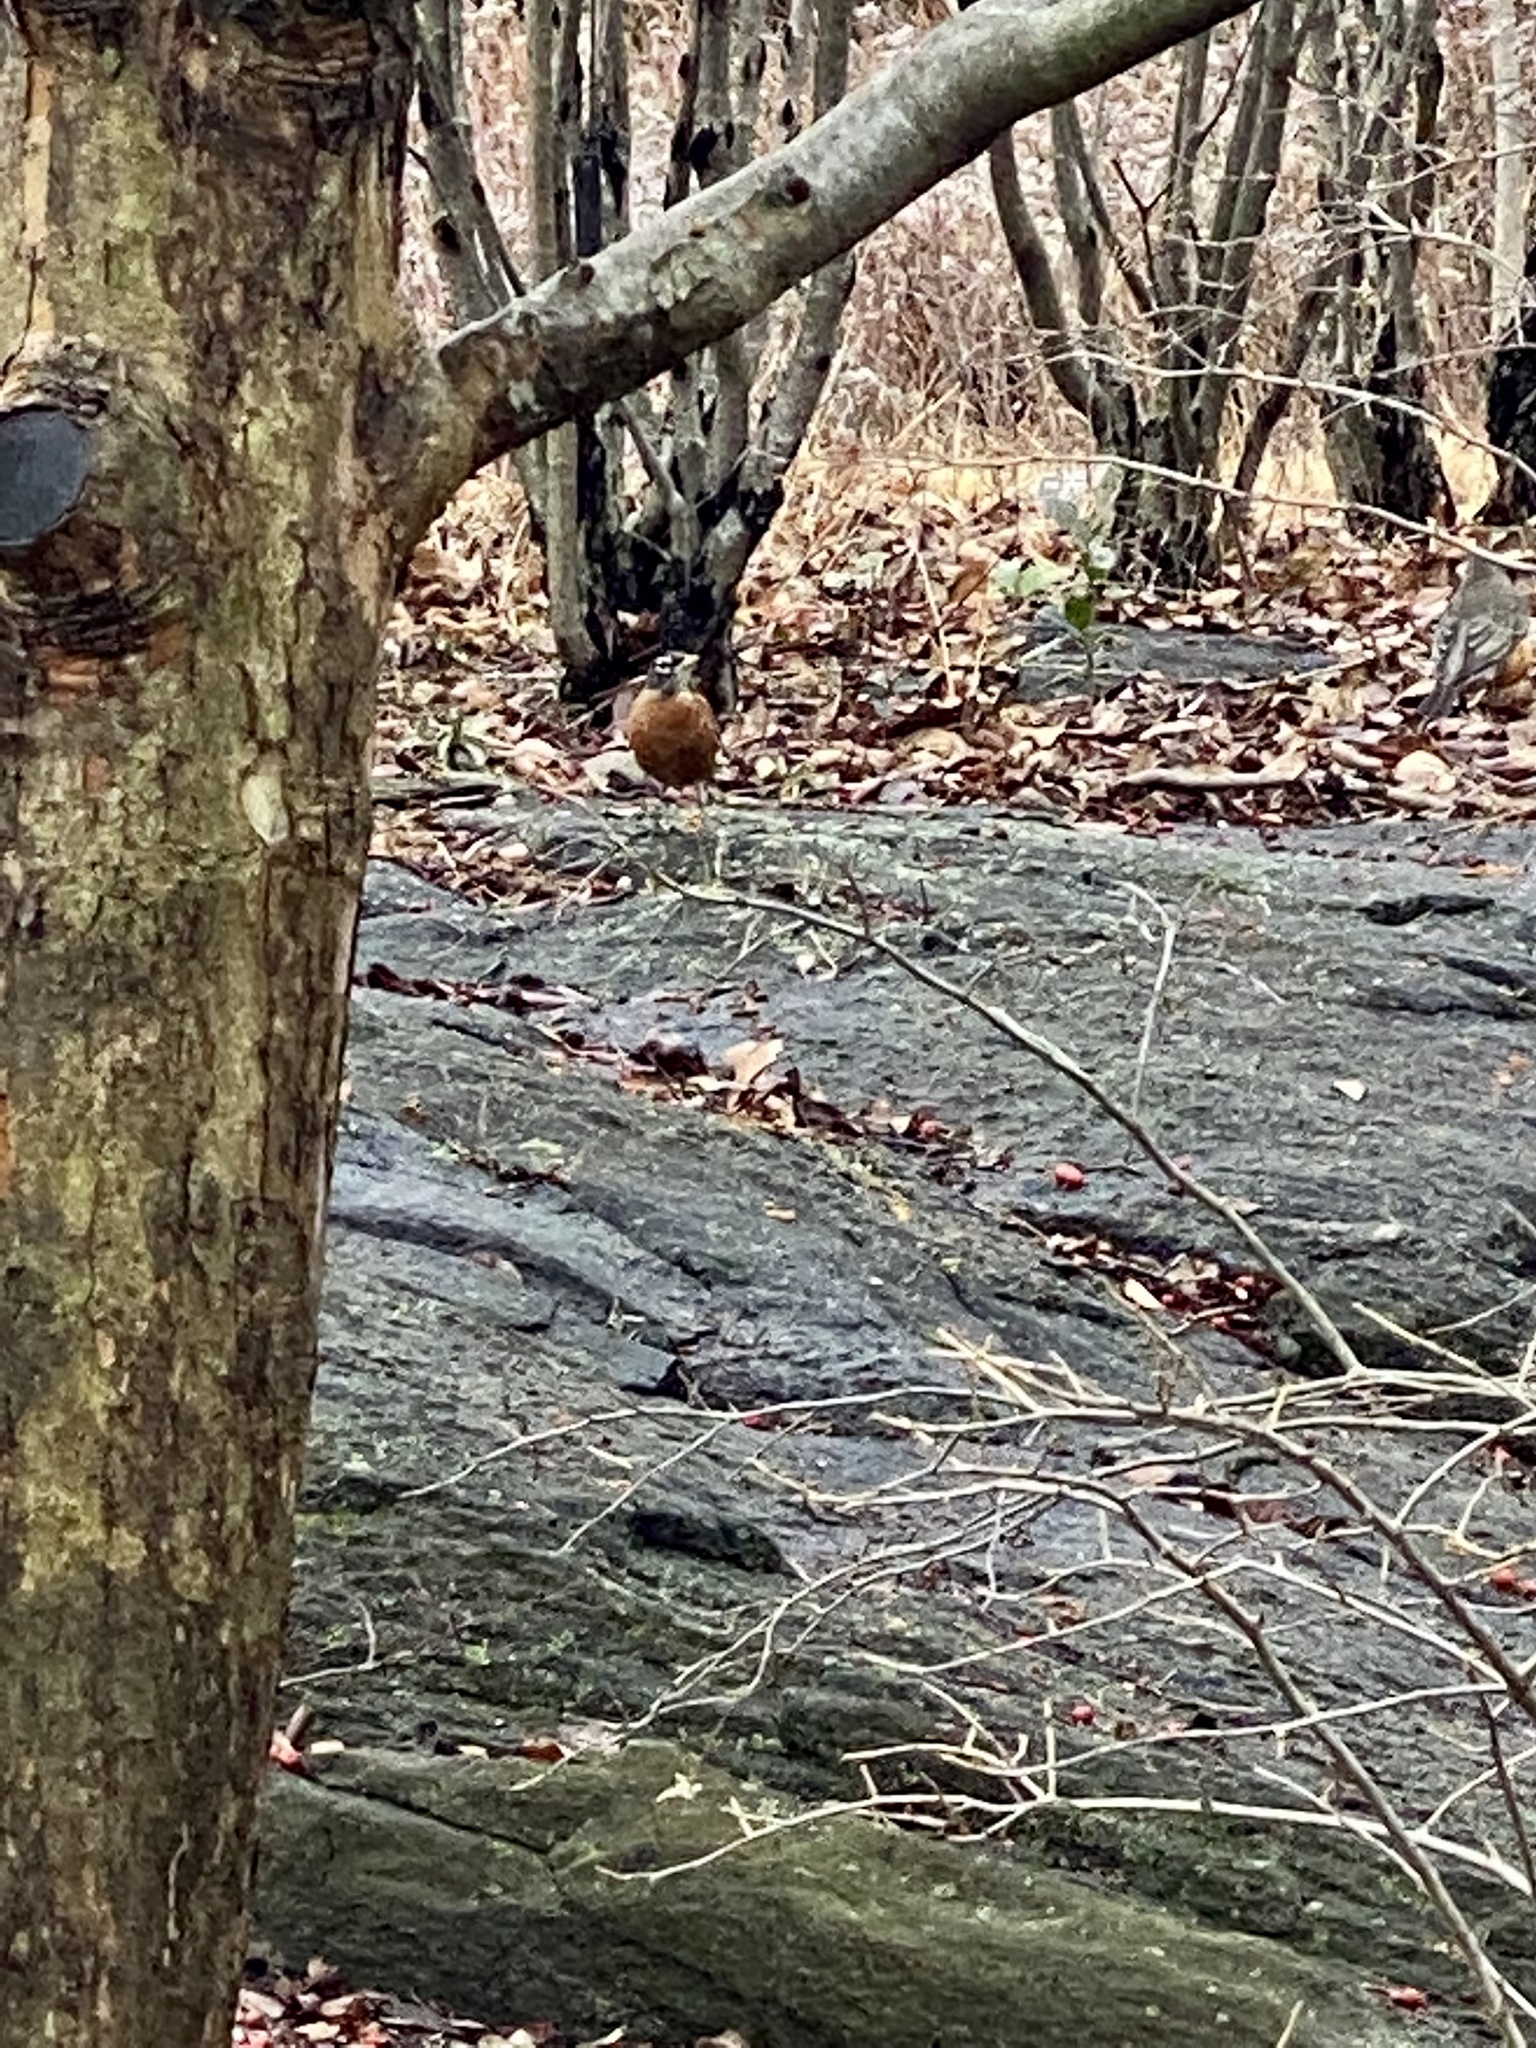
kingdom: Animalia
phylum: Chordata
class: Aves
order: Passeriformes
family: Turdidae
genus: Turdus
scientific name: Turdus migratorius
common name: American robin
